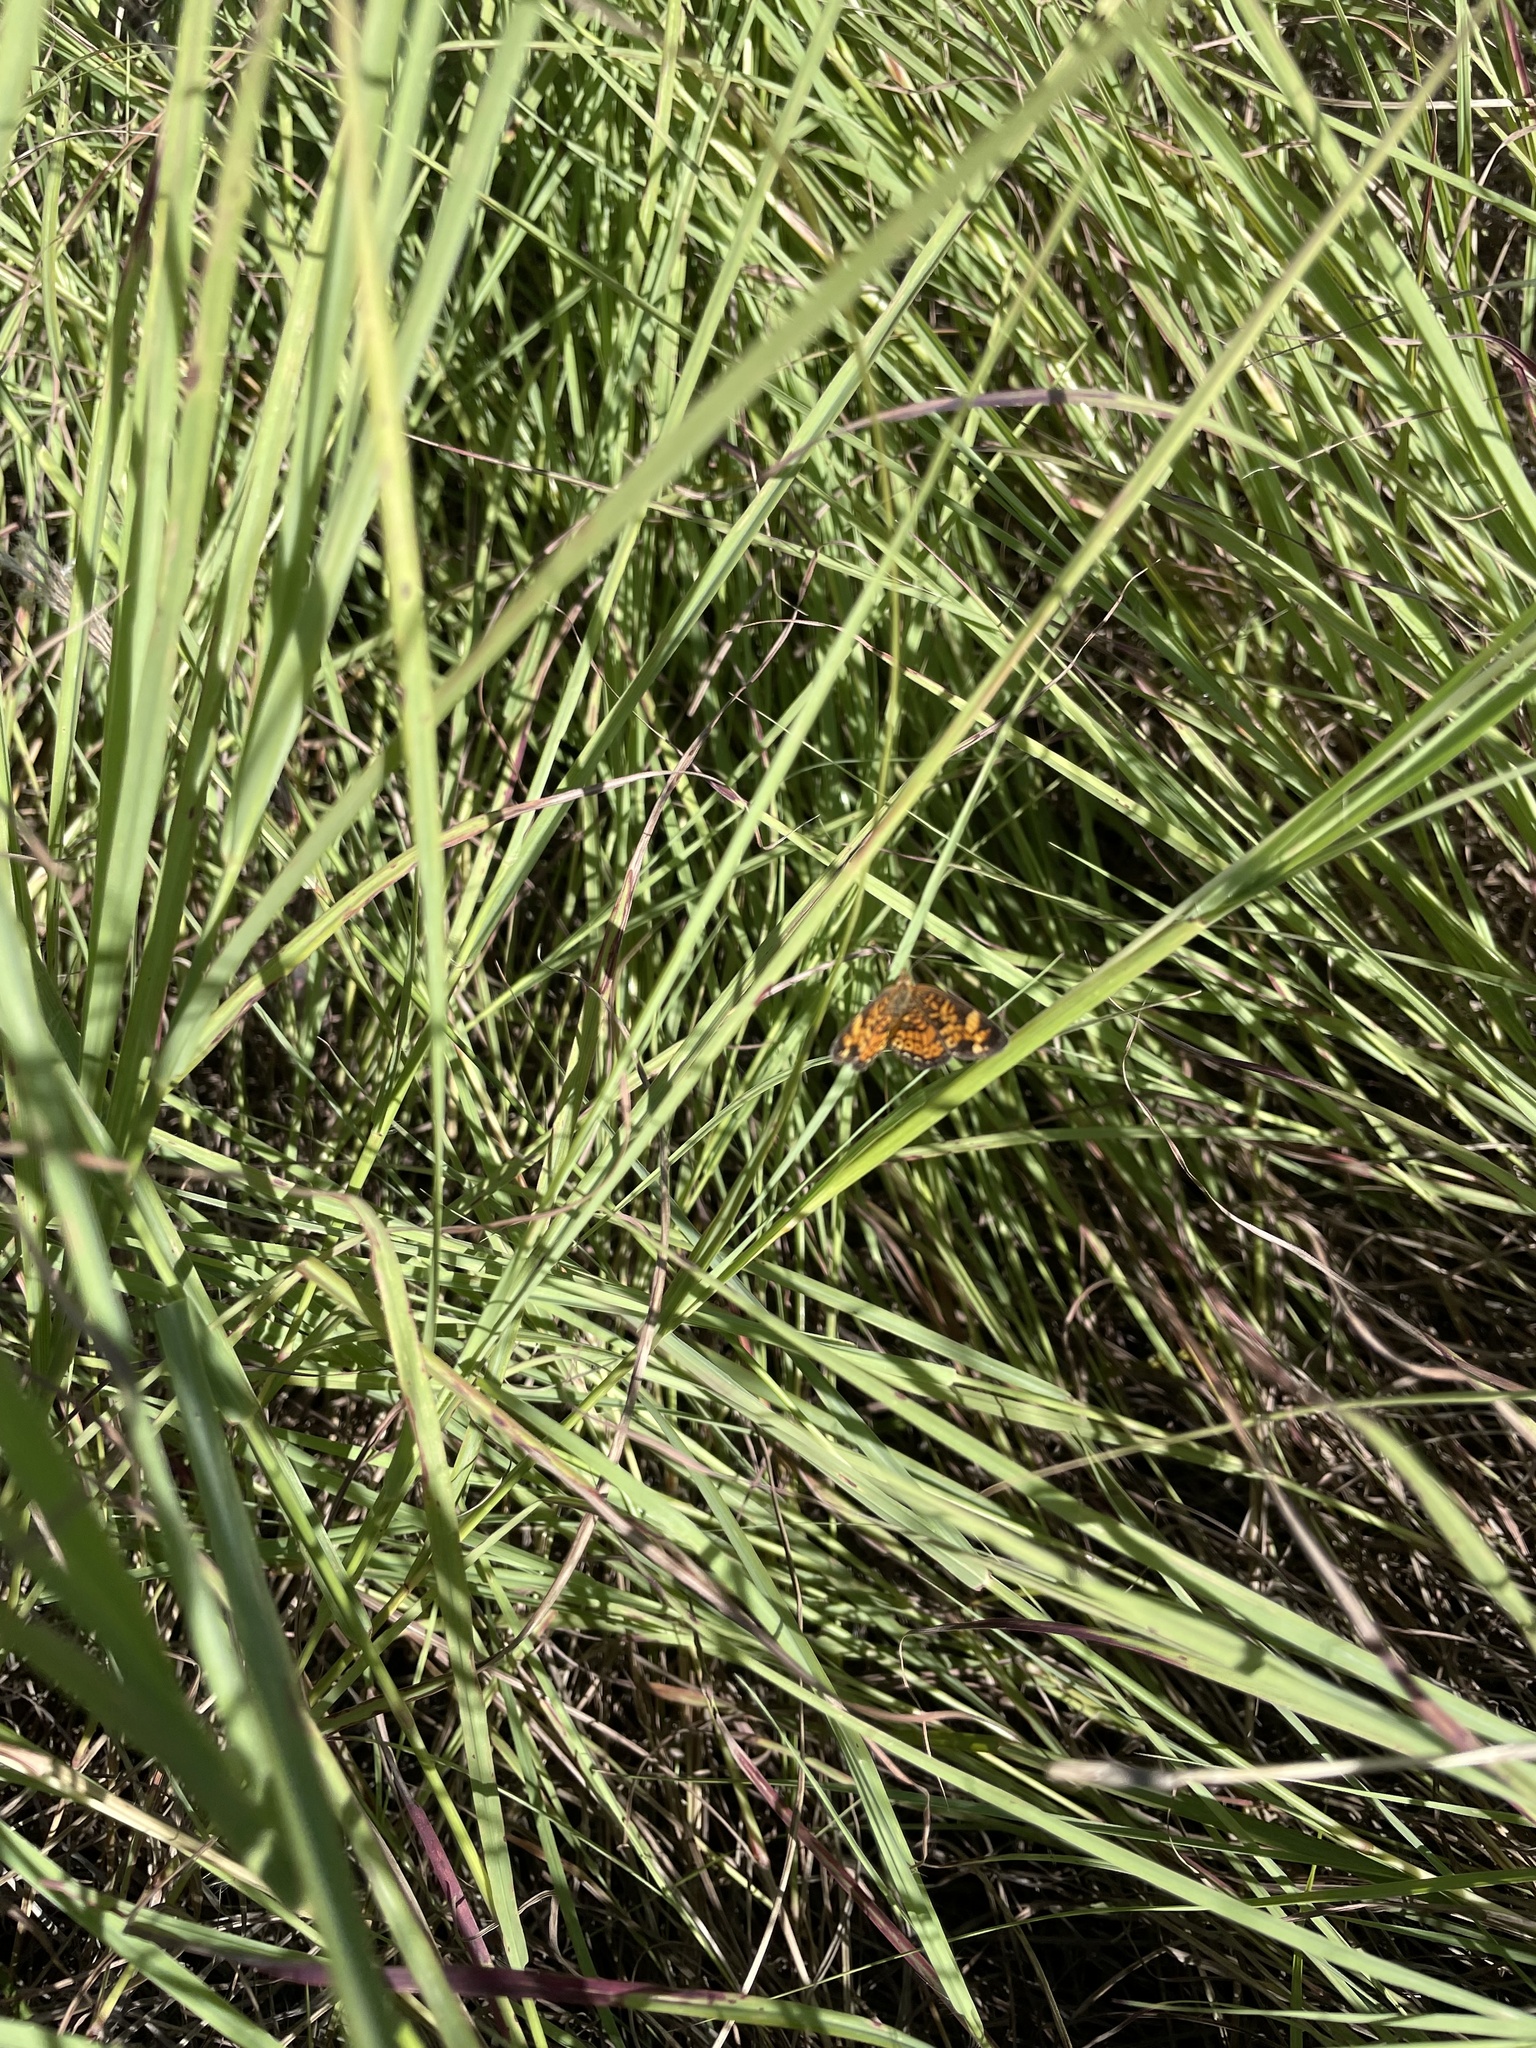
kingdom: Animalia
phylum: Arthropoda
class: Insecta
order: Lepidoptera
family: Nymphalidae
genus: Phyciodes
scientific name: Phyciodes tharos
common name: Pearl crescent
